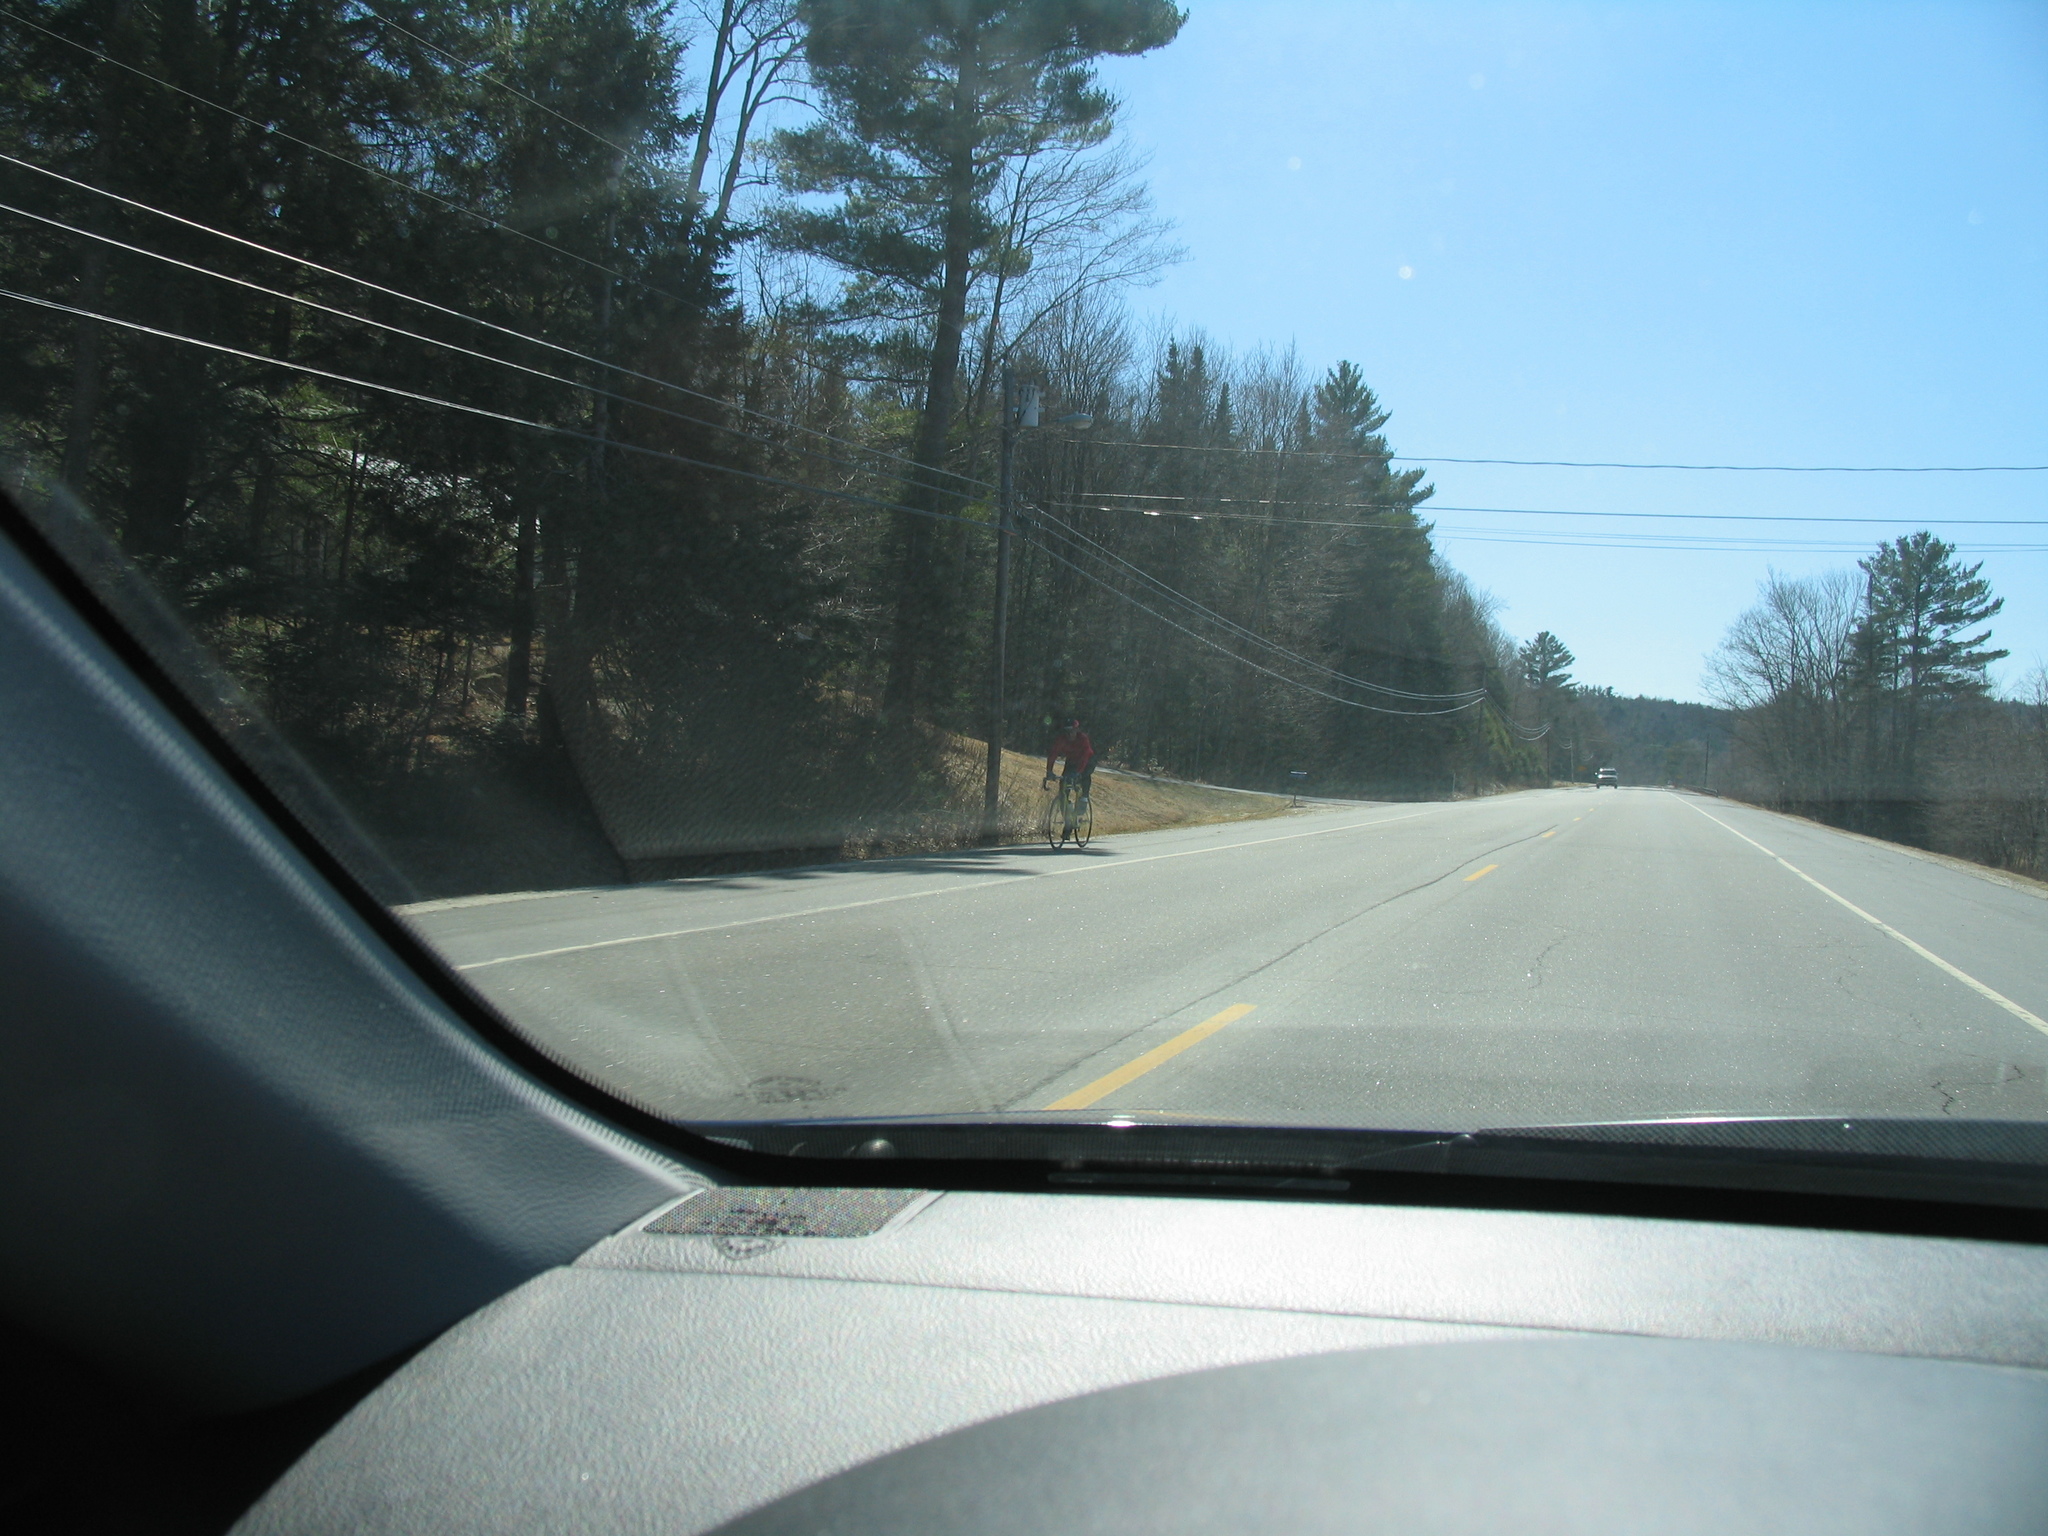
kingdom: Plantae
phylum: Tracheophyta
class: Pinopsida
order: Pinales
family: Pinaceae
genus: Pinus
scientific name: Pinus strobus
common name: Weymouth pine
